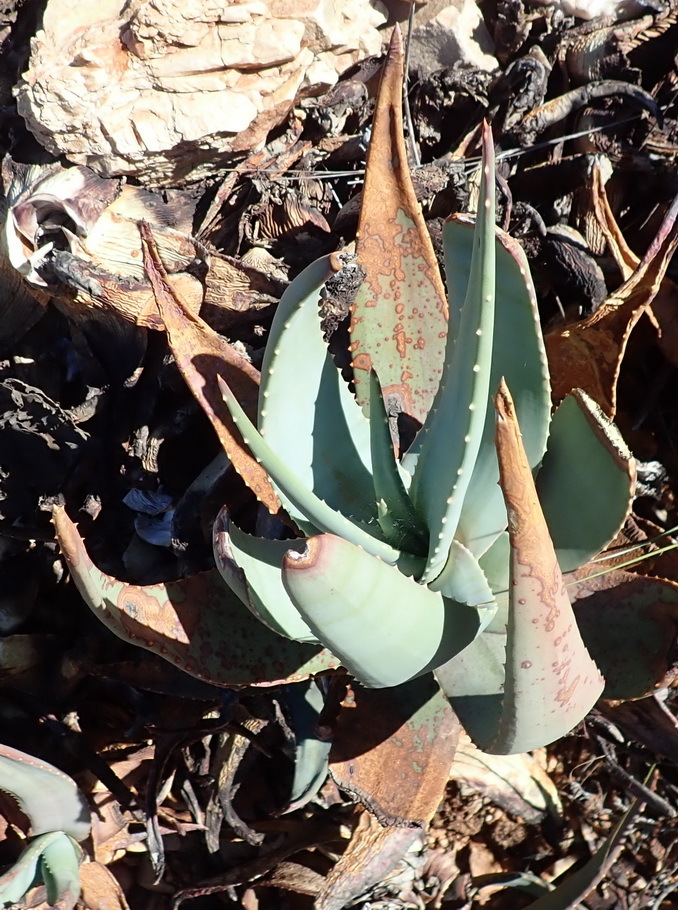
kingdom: Plantae
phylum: Tracheophyta
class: Liliopsida
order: Asparagales
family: Asphodelaceae
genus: Aloe
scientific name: Aloe comptonii
